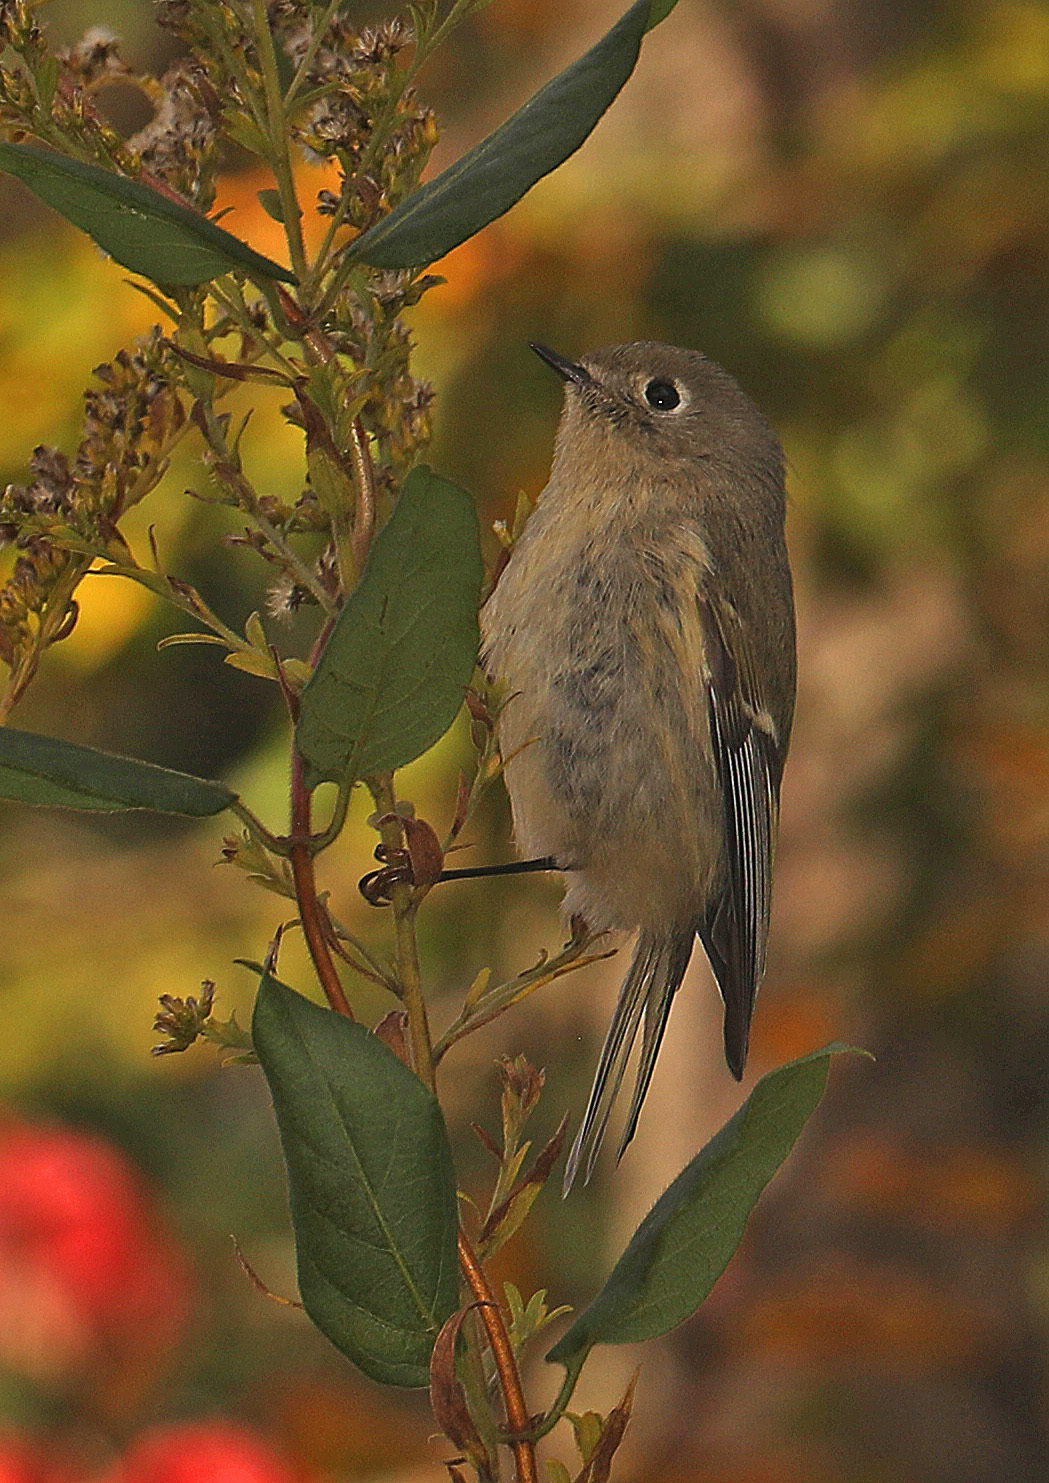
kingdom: Animalia
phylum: Chordata
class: Aves
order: Passeriformes
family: Regulidae
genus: Regulus
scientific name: Regulus calendula
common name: Ruby-crowned kinglet
